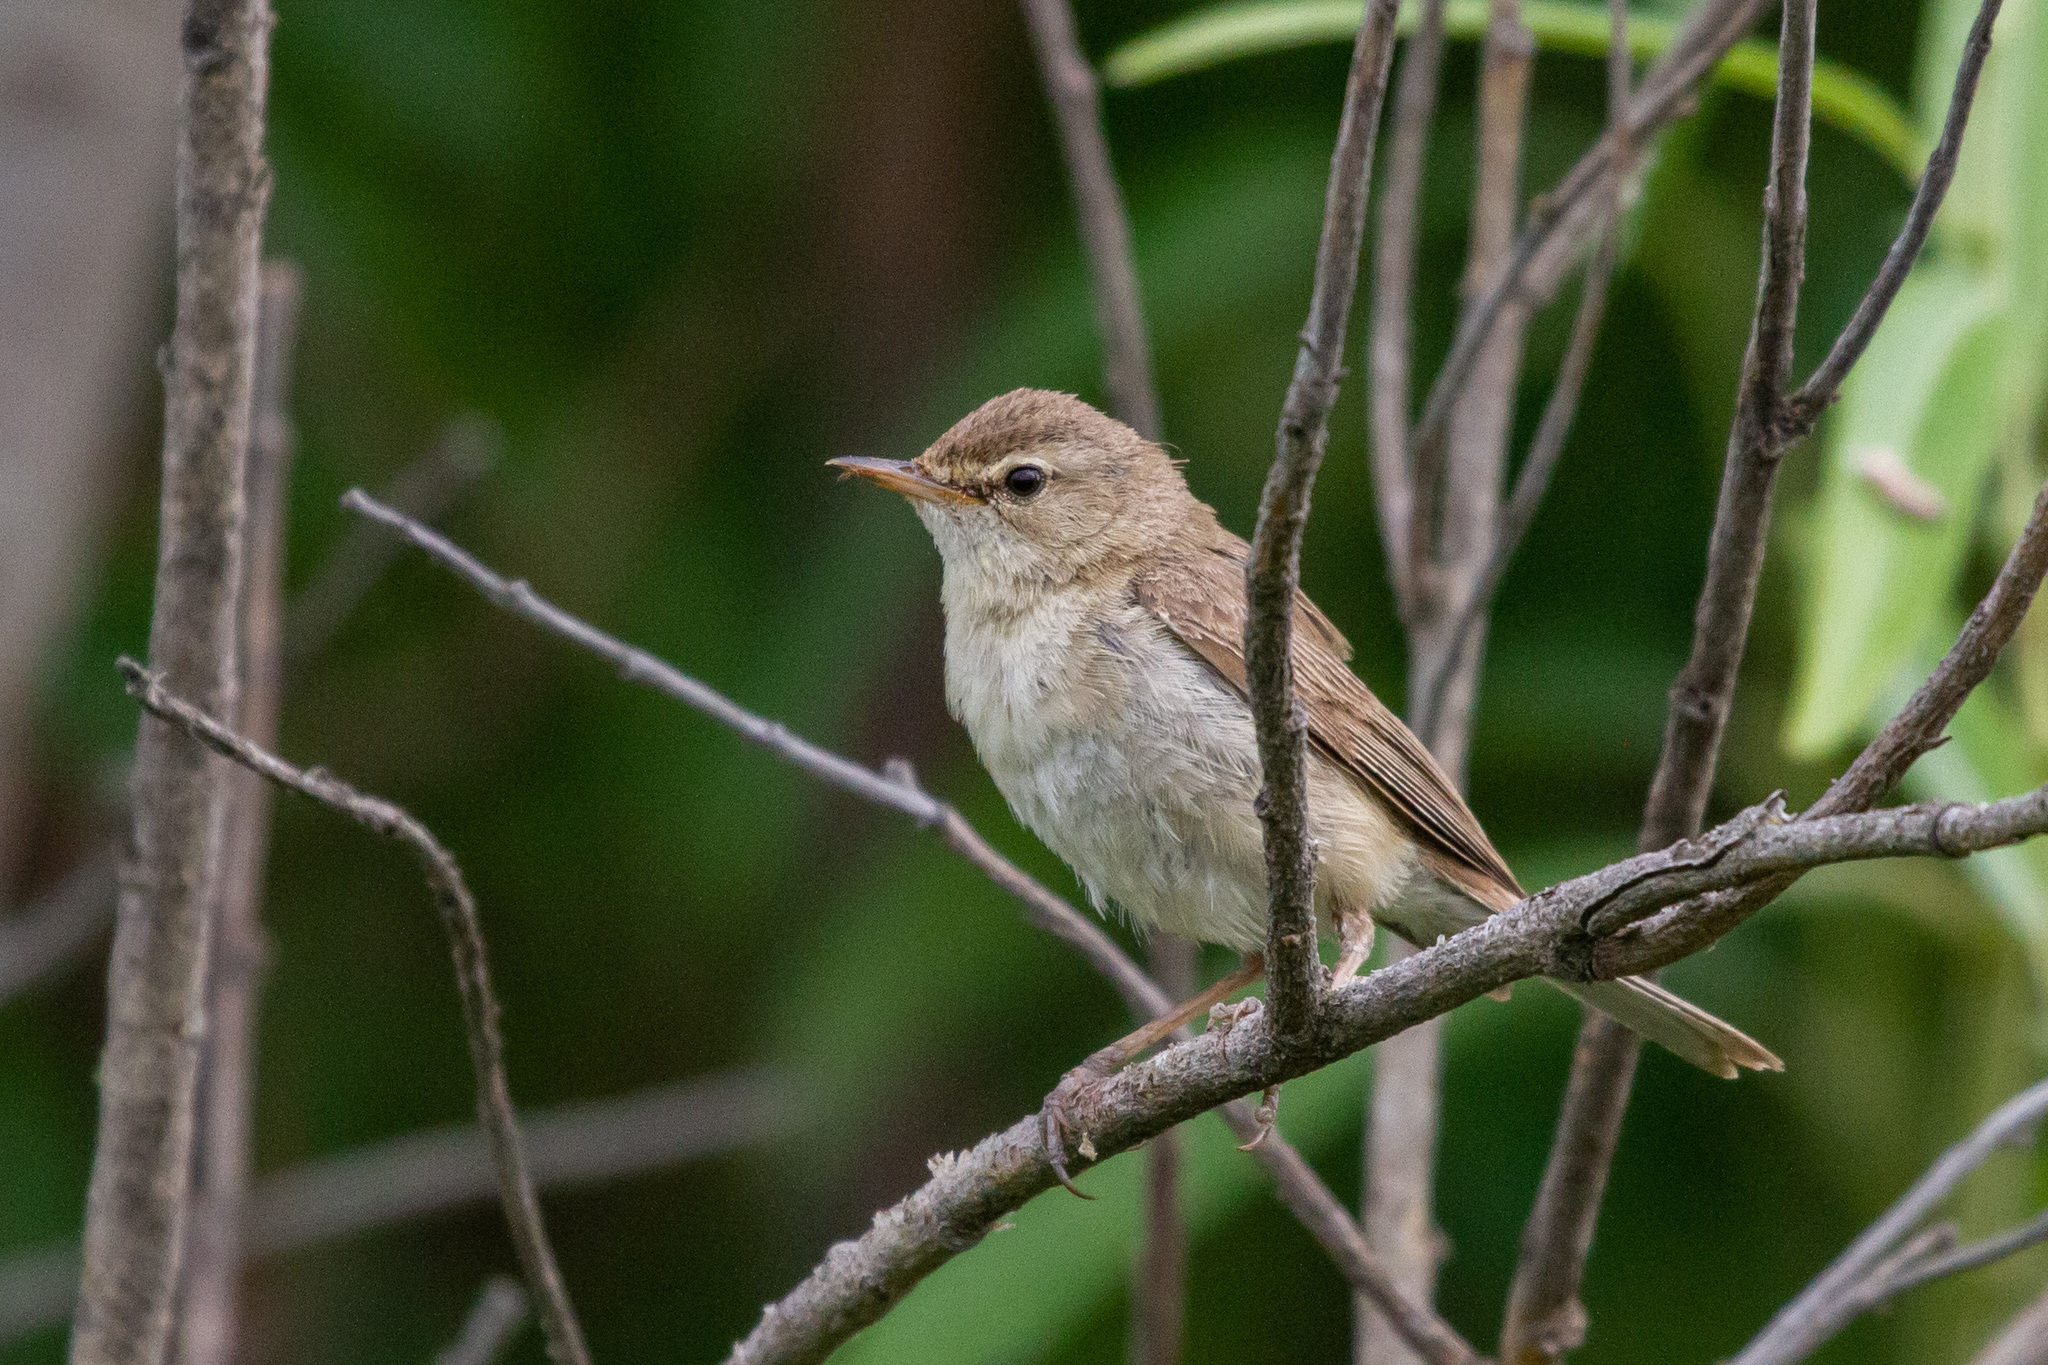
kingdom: Animalia
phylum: Chordata
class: Aves
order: Passeriformes
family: Acrocephalidae
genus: Iduna
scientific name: Iduna caligata
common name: Booted warbler
